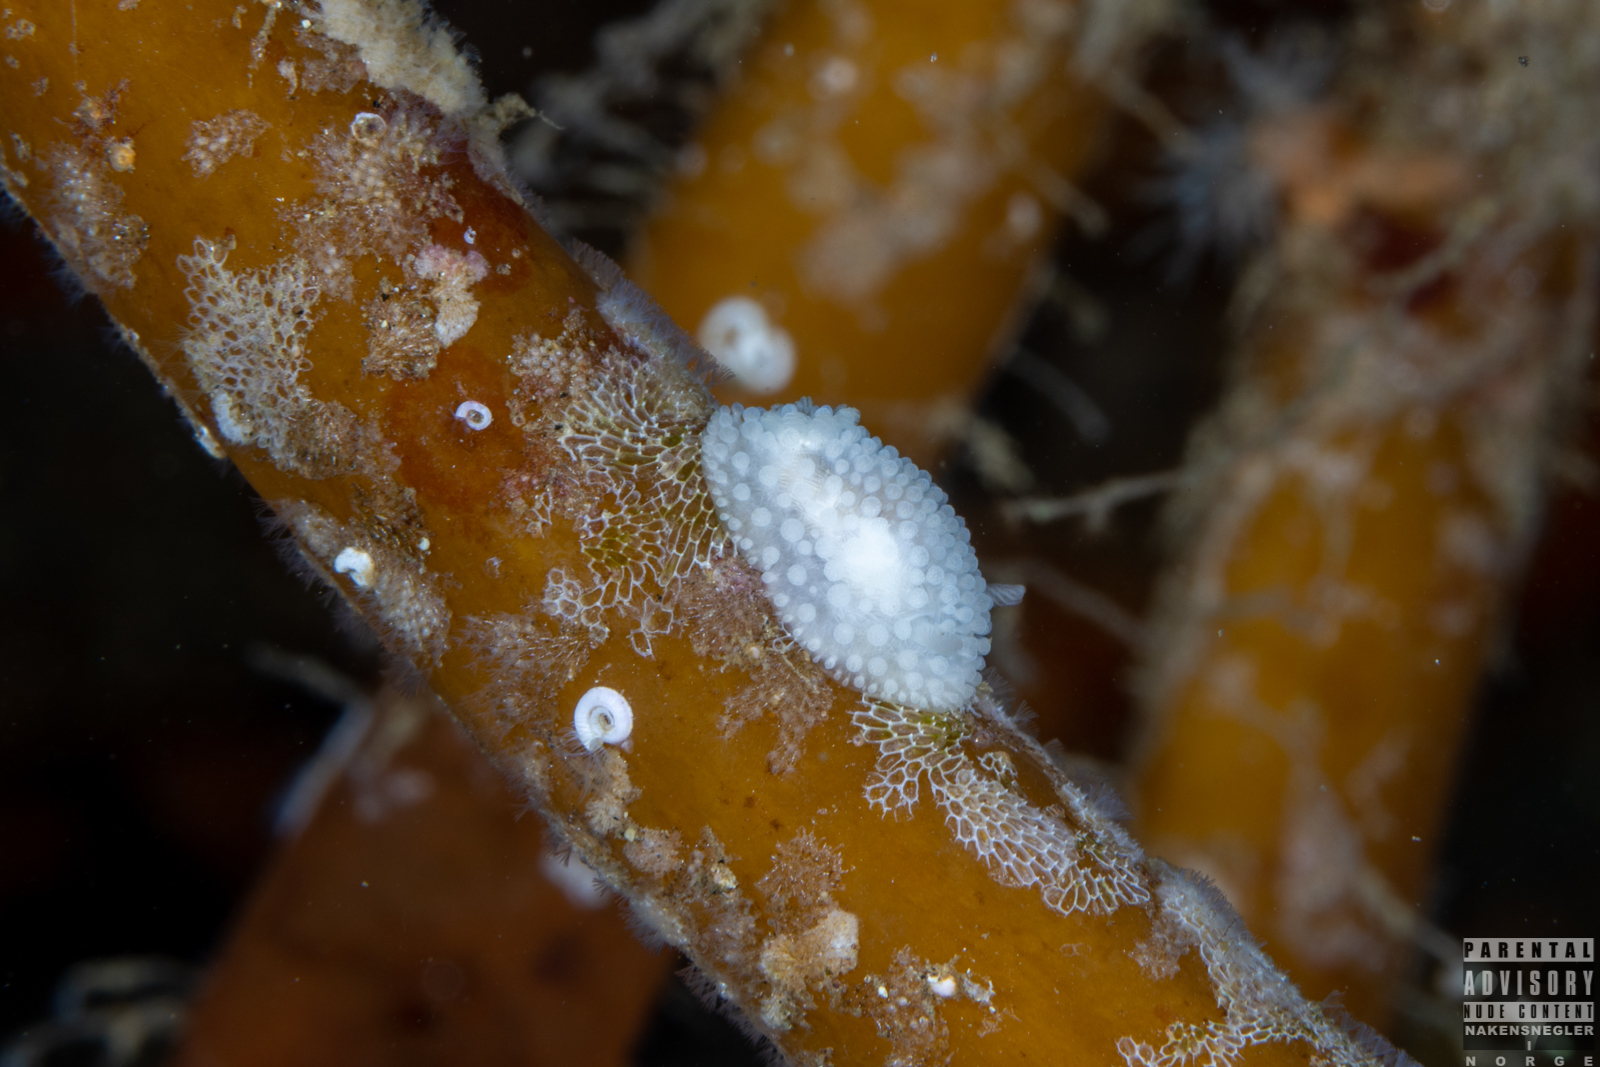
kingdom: Animalia
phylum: Mollusca
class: Gastropoda
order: Nudibranchia
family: Onchidorididae
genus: Onchidoris
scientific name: Onchidoris muricata
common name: Rough doris
